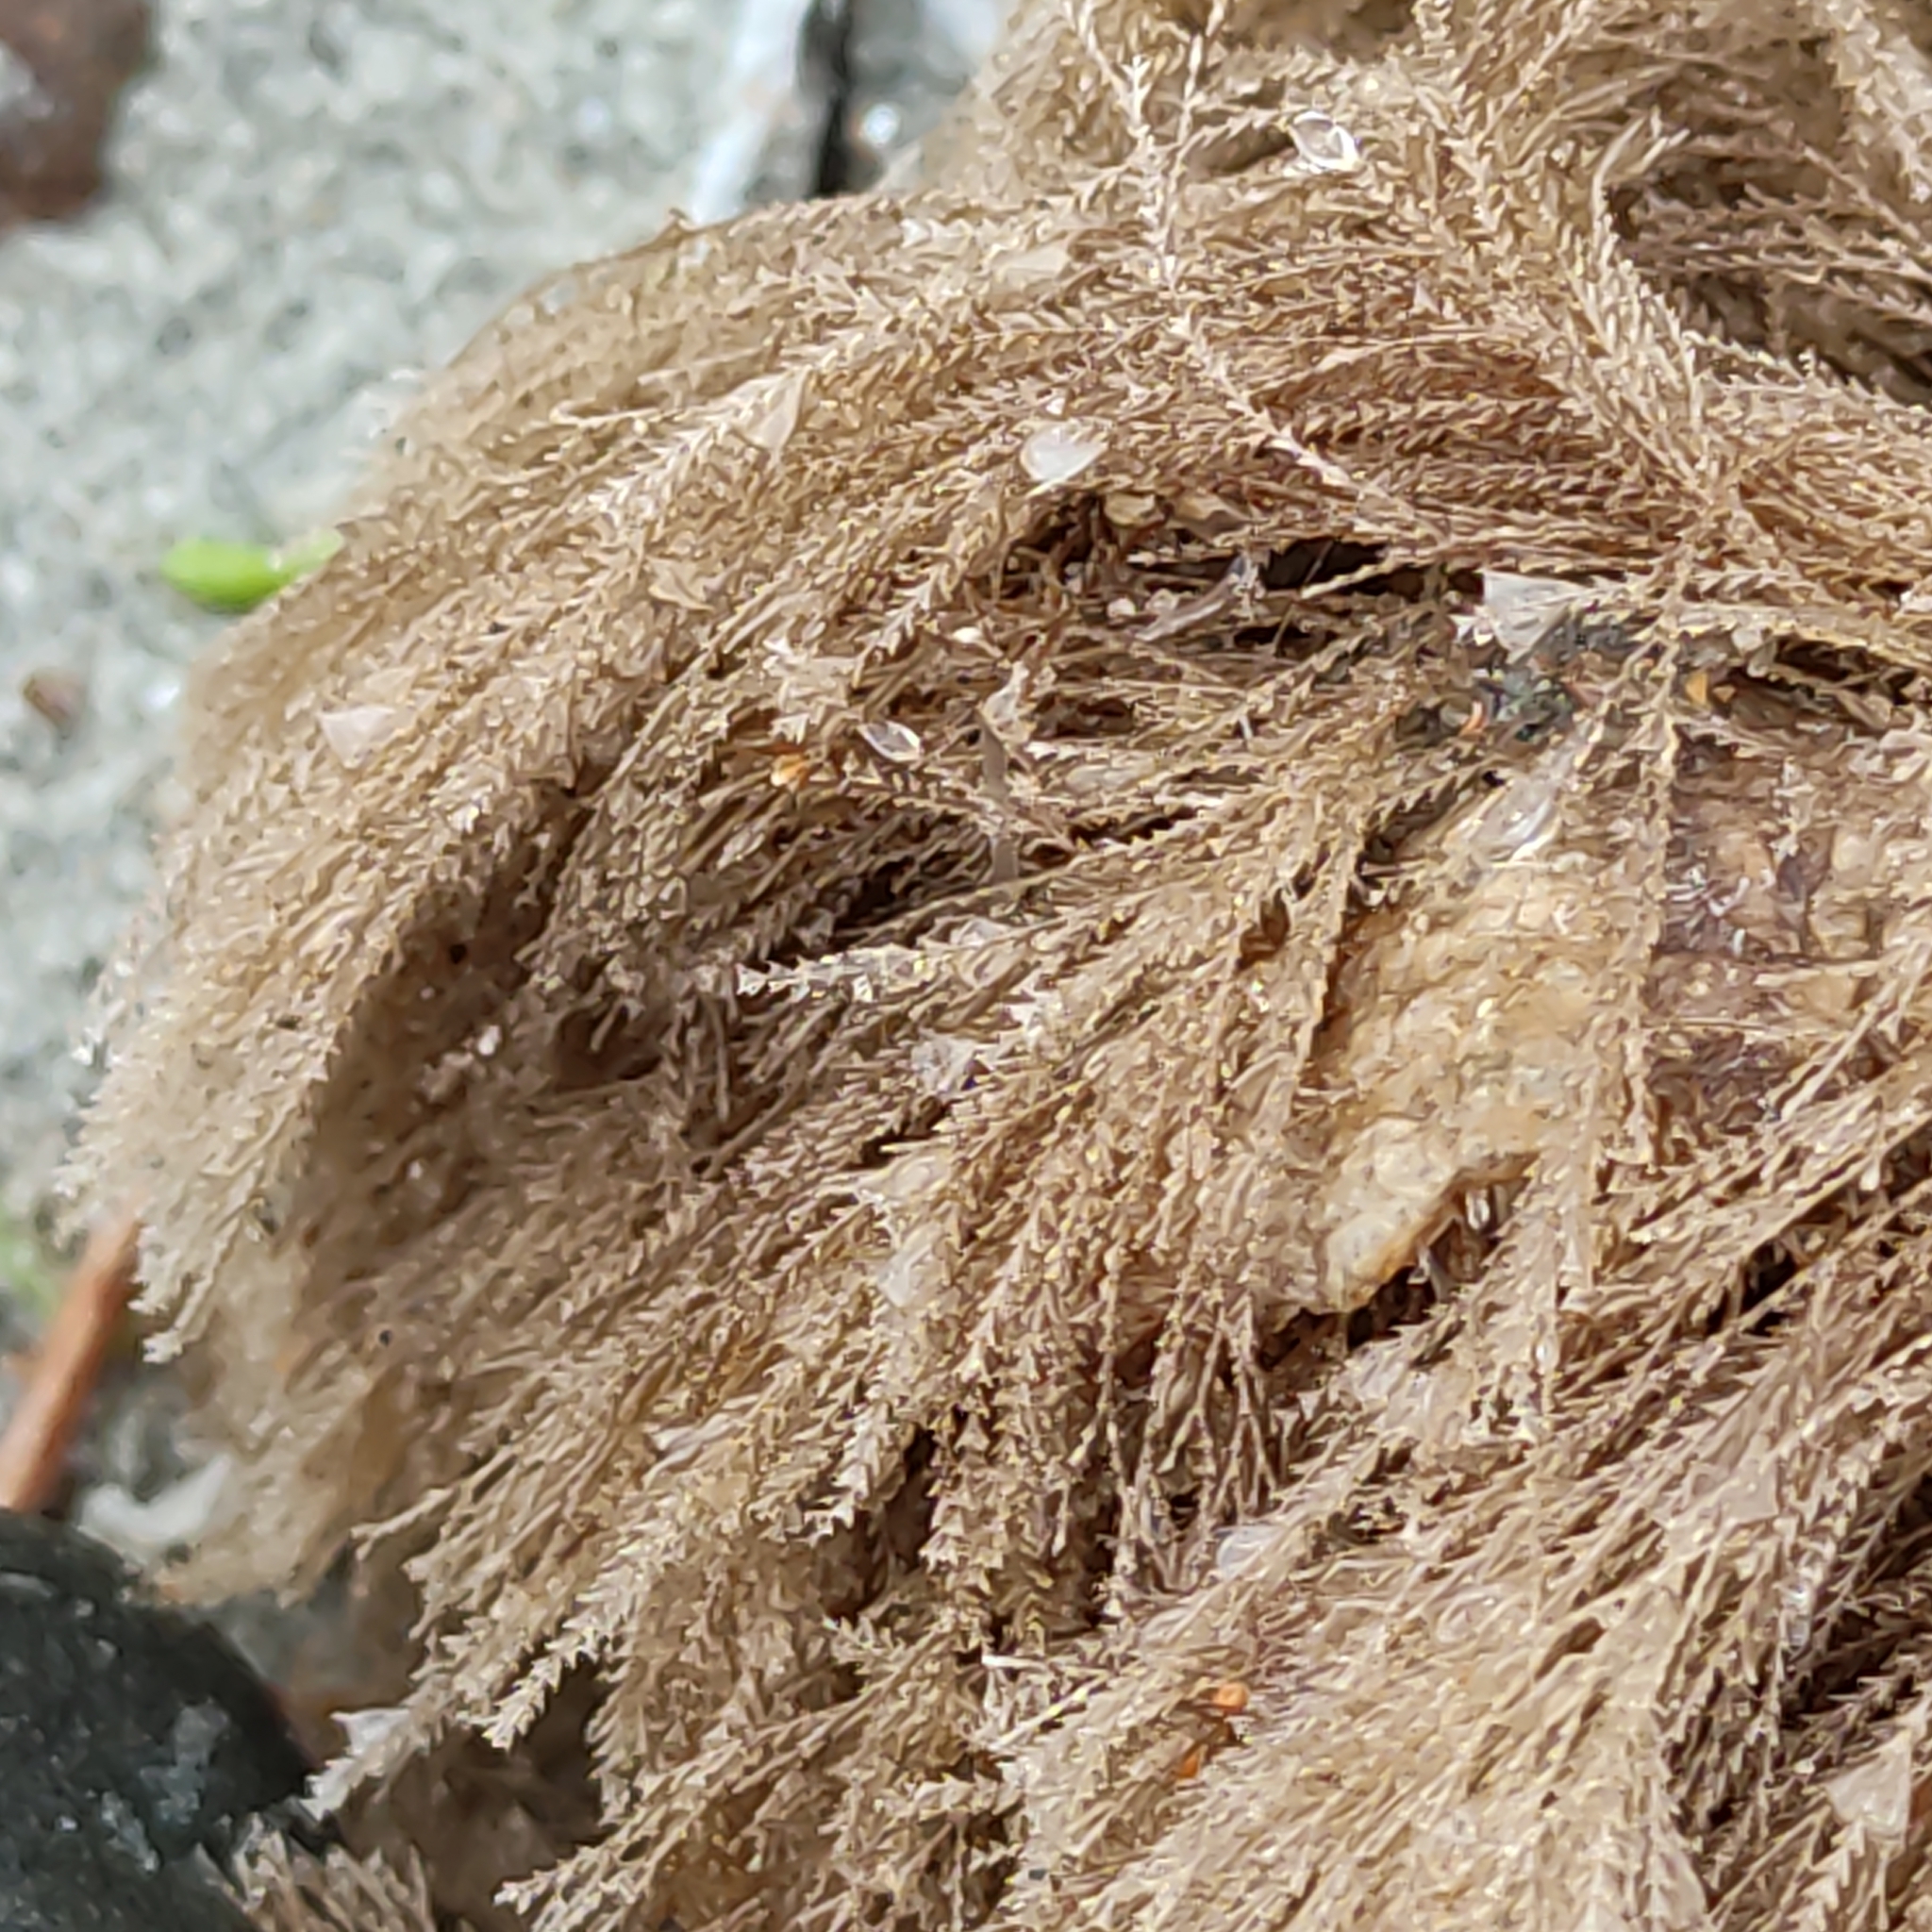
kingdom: Animalia
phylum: Cnidaria
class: Hydrozoa
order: Leptothecata
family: Sertulariidae
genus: Amphisbetia
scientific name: Amphisbetia bispinosa
